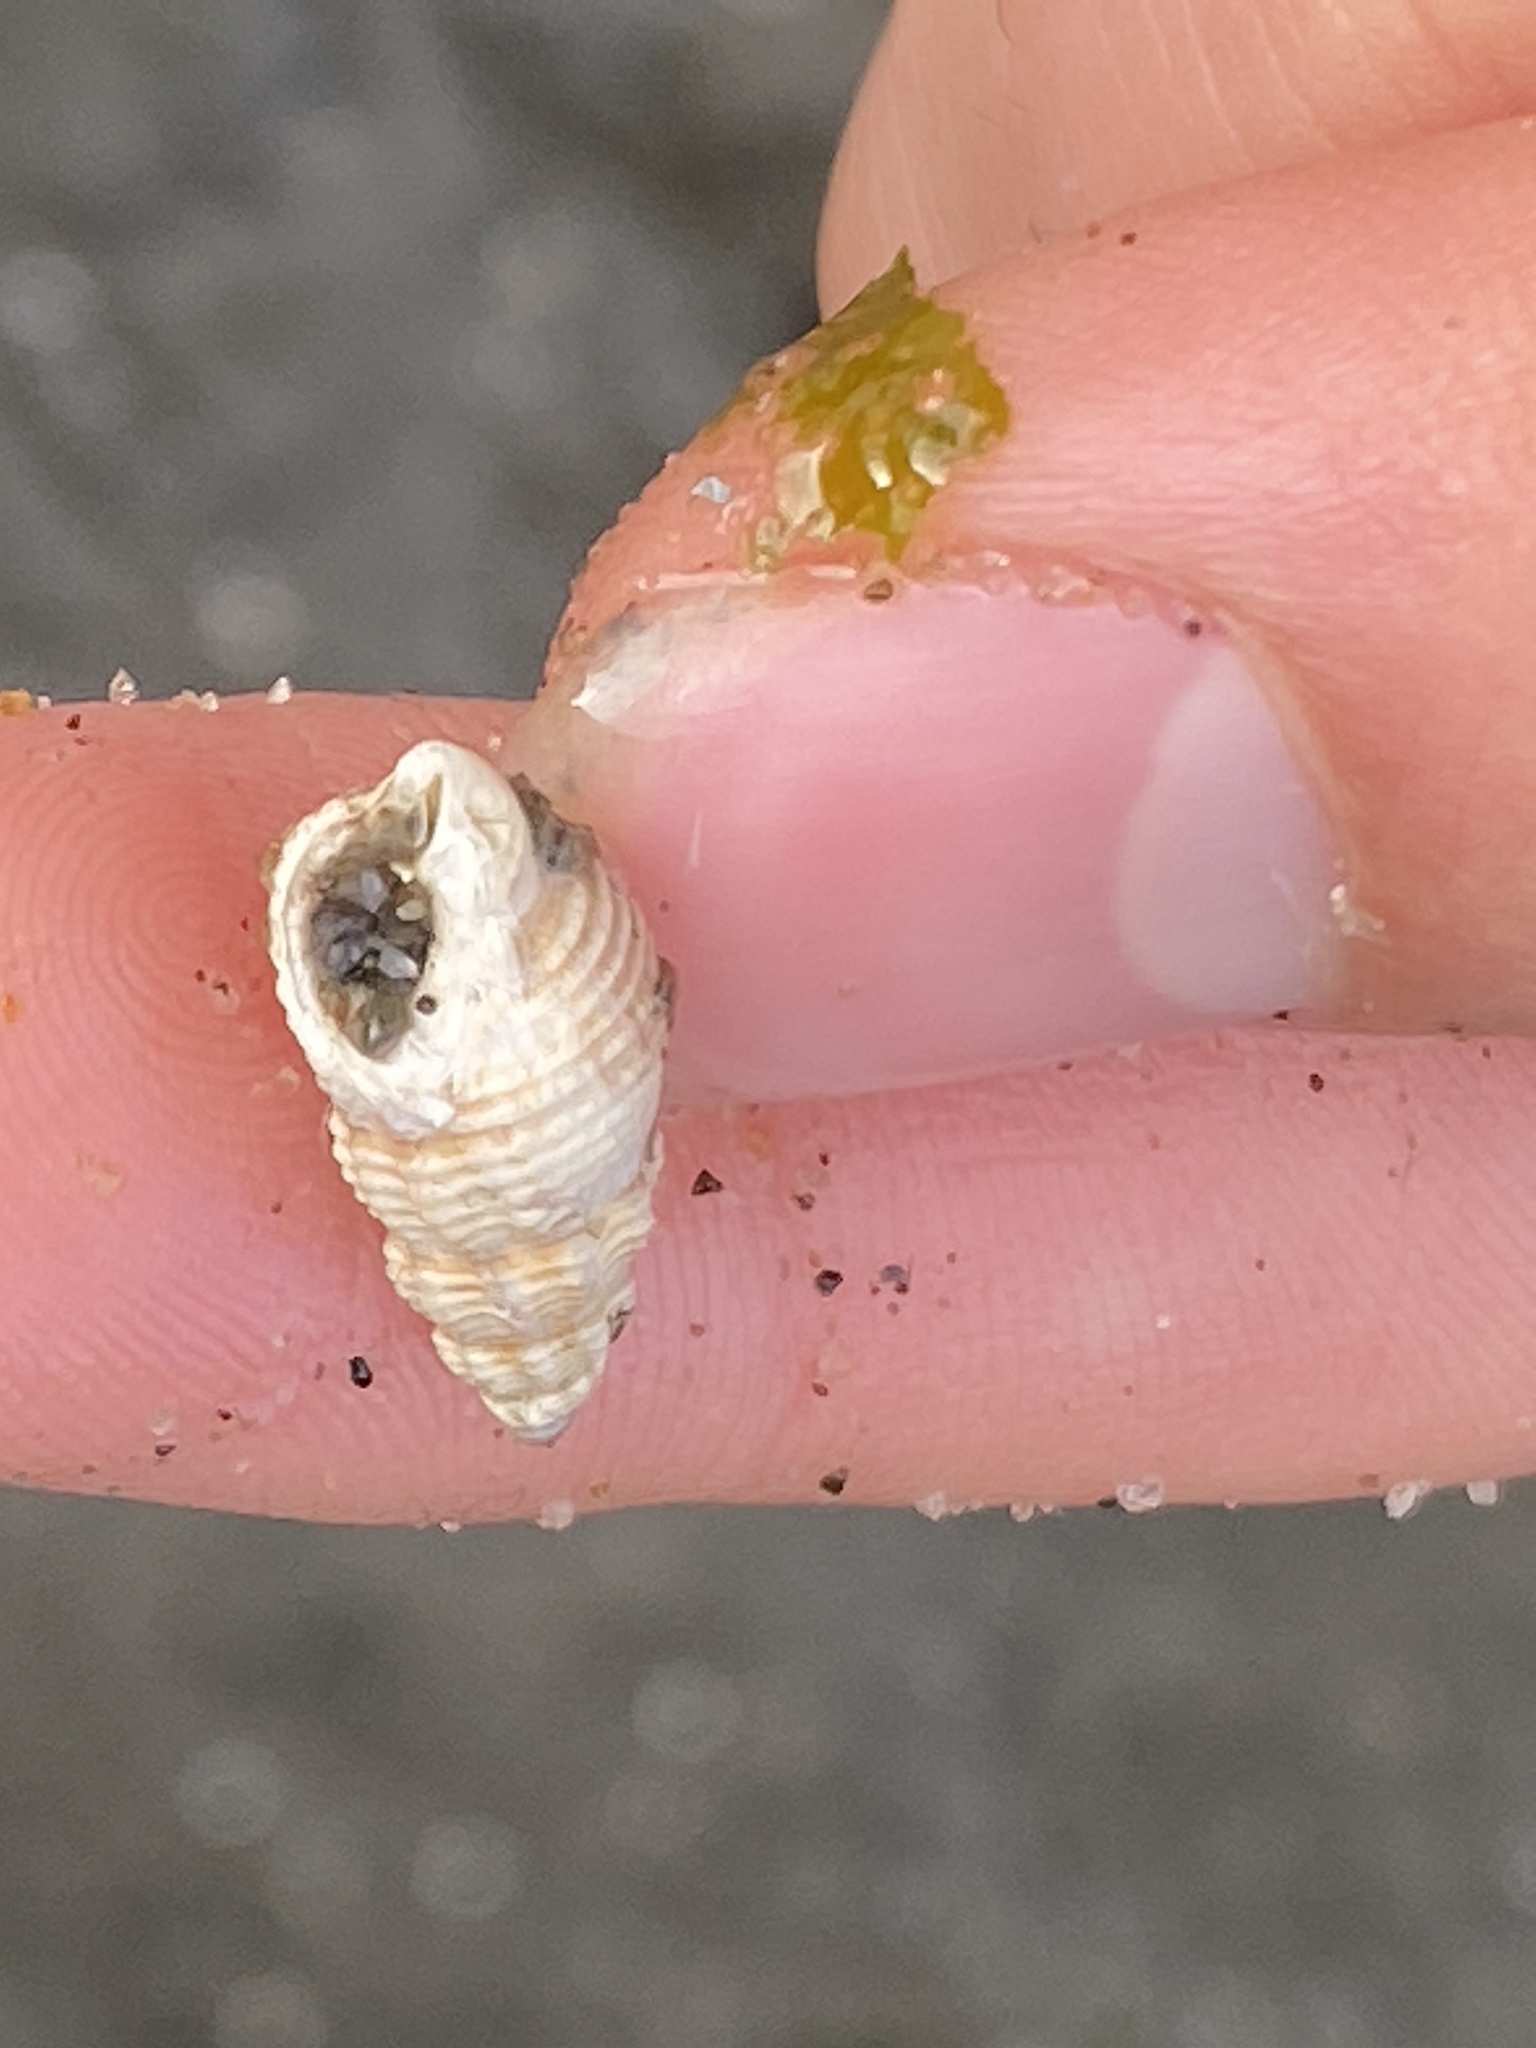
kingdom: Animalia
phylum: Mollusca
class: Gastropoda
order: Neogastropoda
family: Nassariidae
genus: Nassarius
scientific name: Nassarius mendicus
